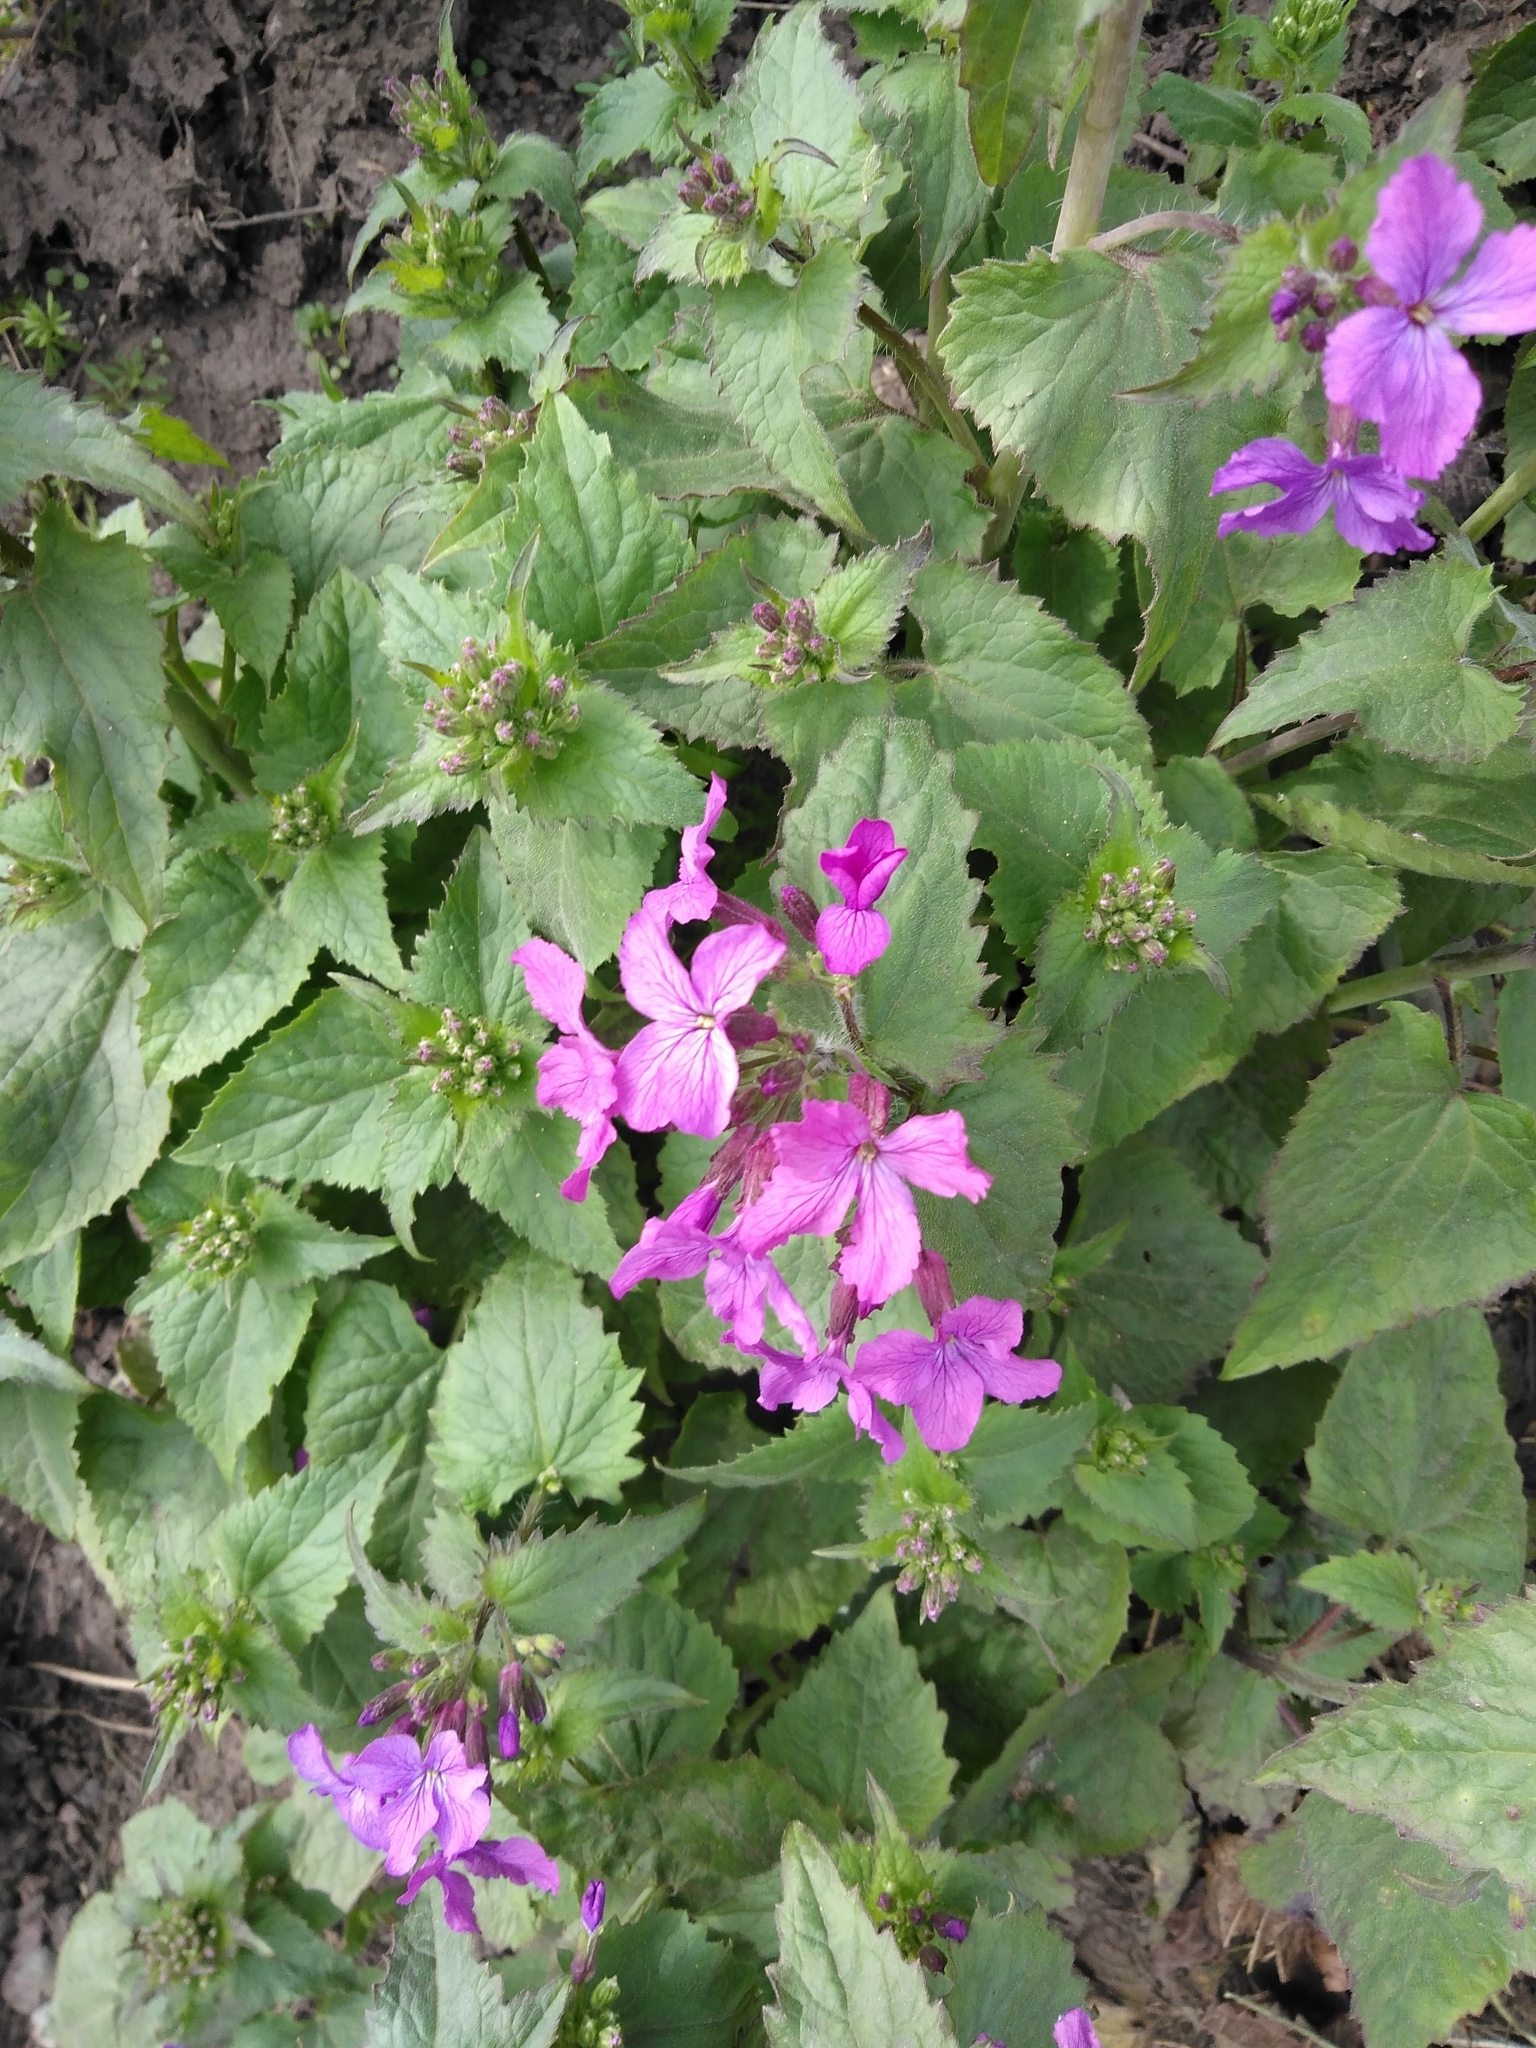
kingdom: Plantae
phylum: Tracheophyta
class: Magnoliopsida
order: Brassicales
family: Brassicaceae
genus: Lunaria
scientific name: Lunaria annua
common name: Honesty
